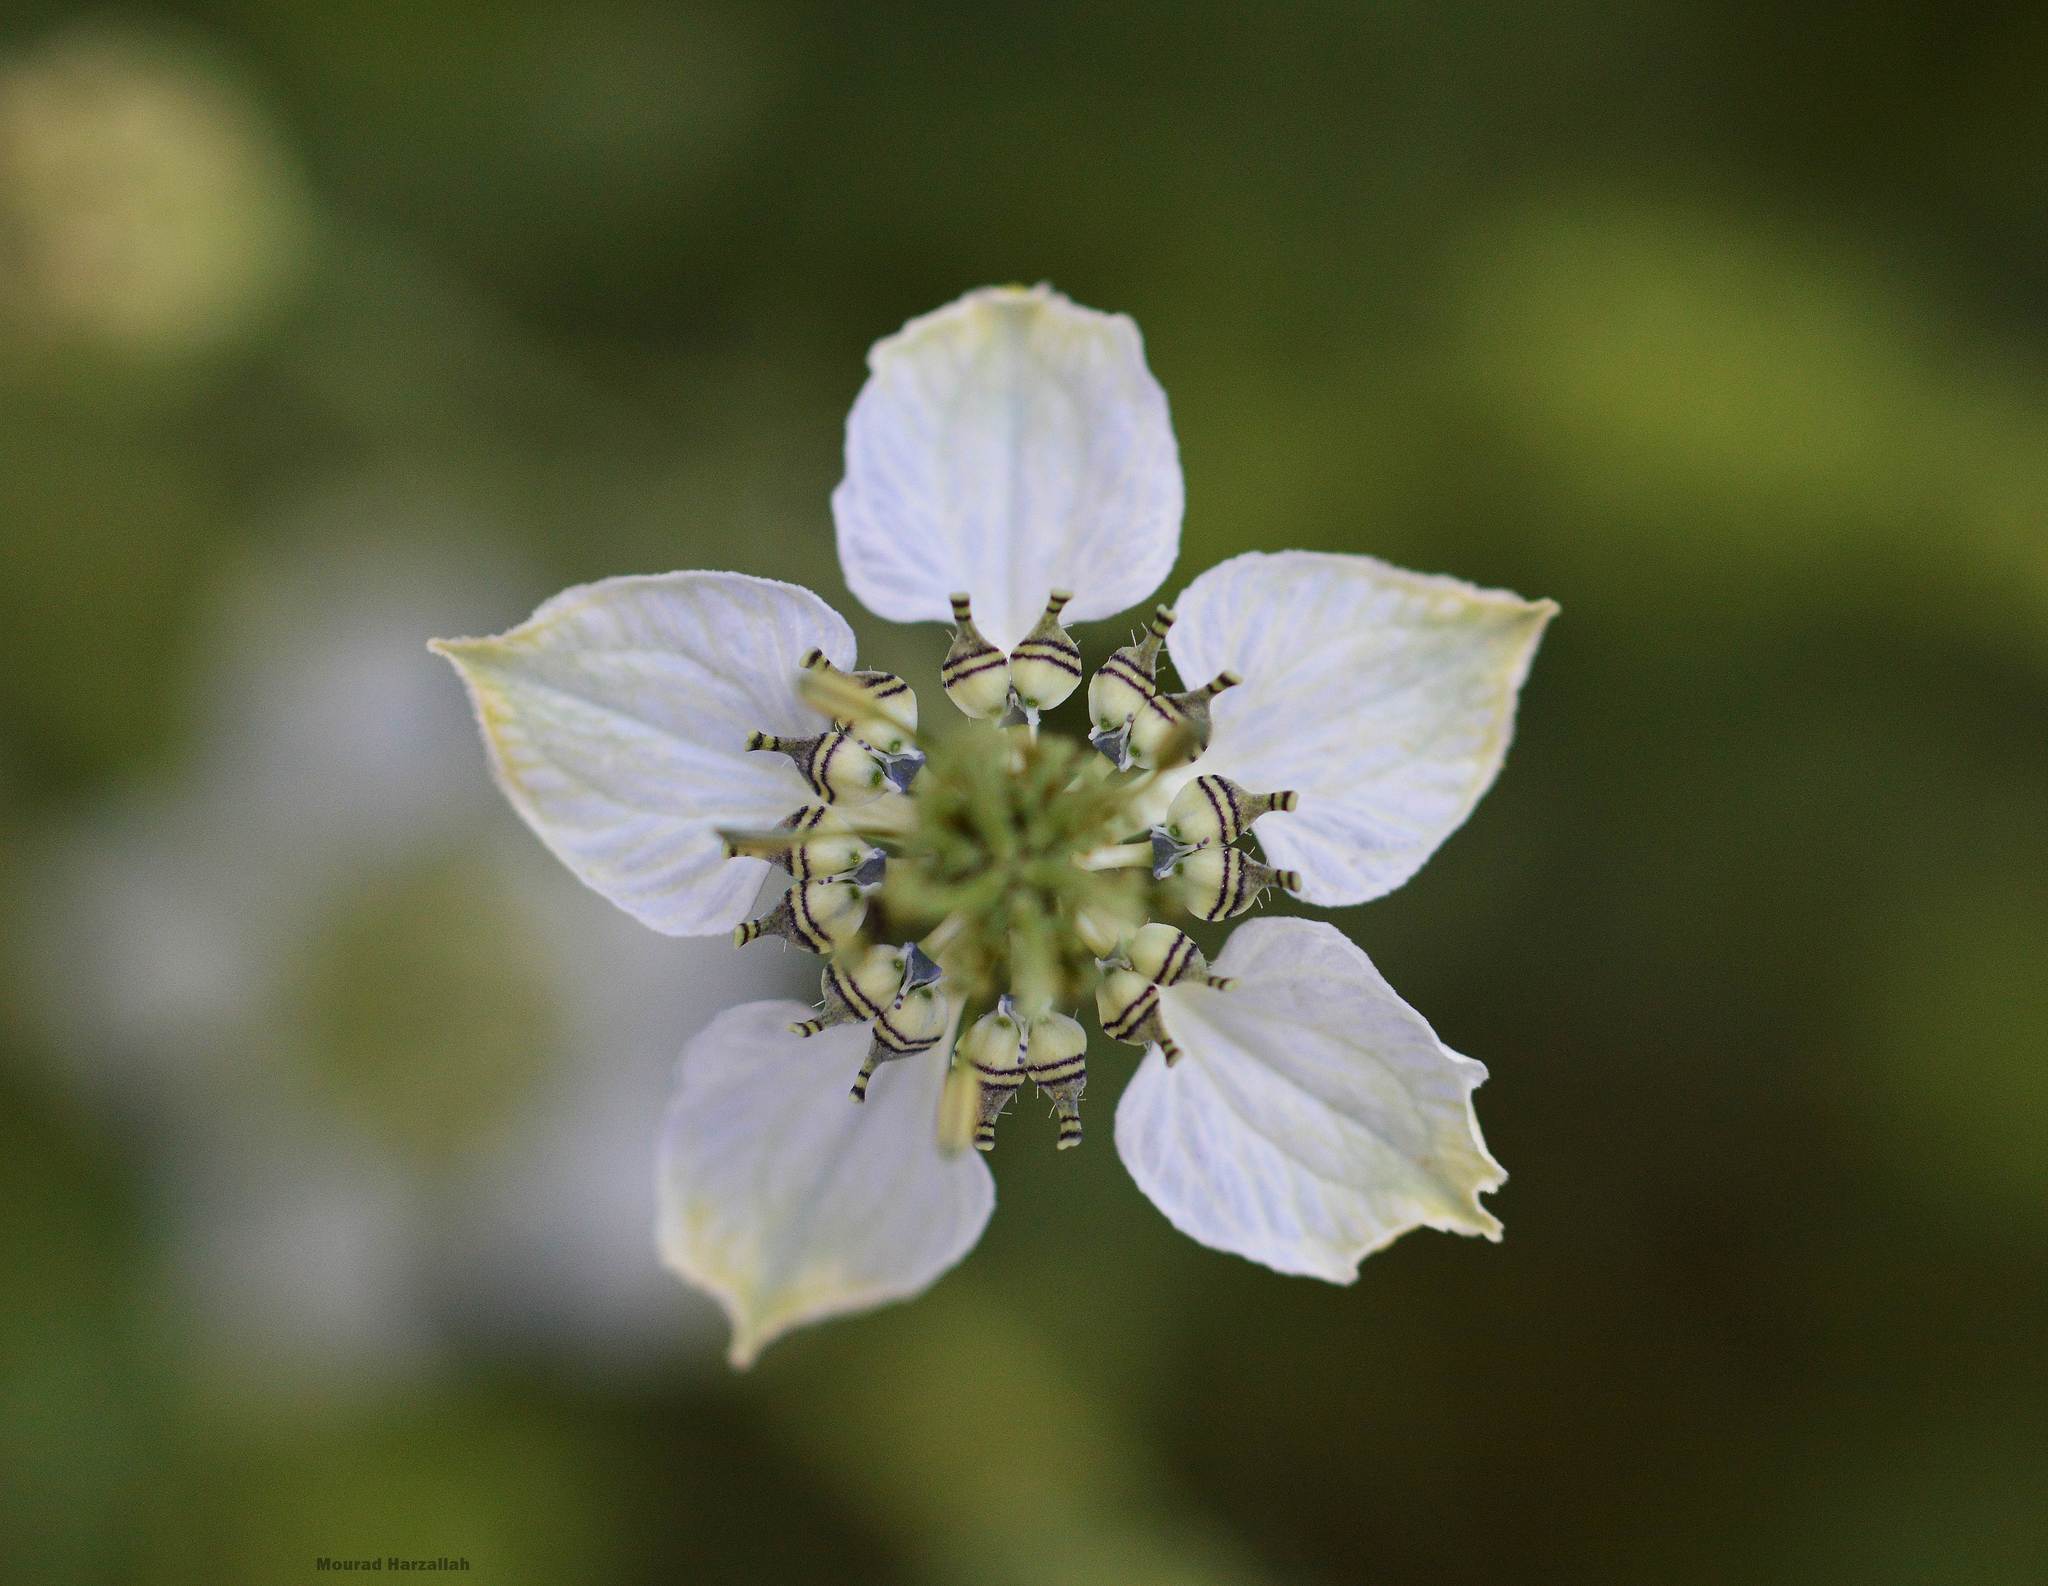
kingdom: Plantae
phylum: Tracheophyta
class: Magnoliopsida
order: Ranunculales
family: Ranunculaceae
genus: Nigella
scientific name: Nigella damascena
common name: Love-in-a-mist
